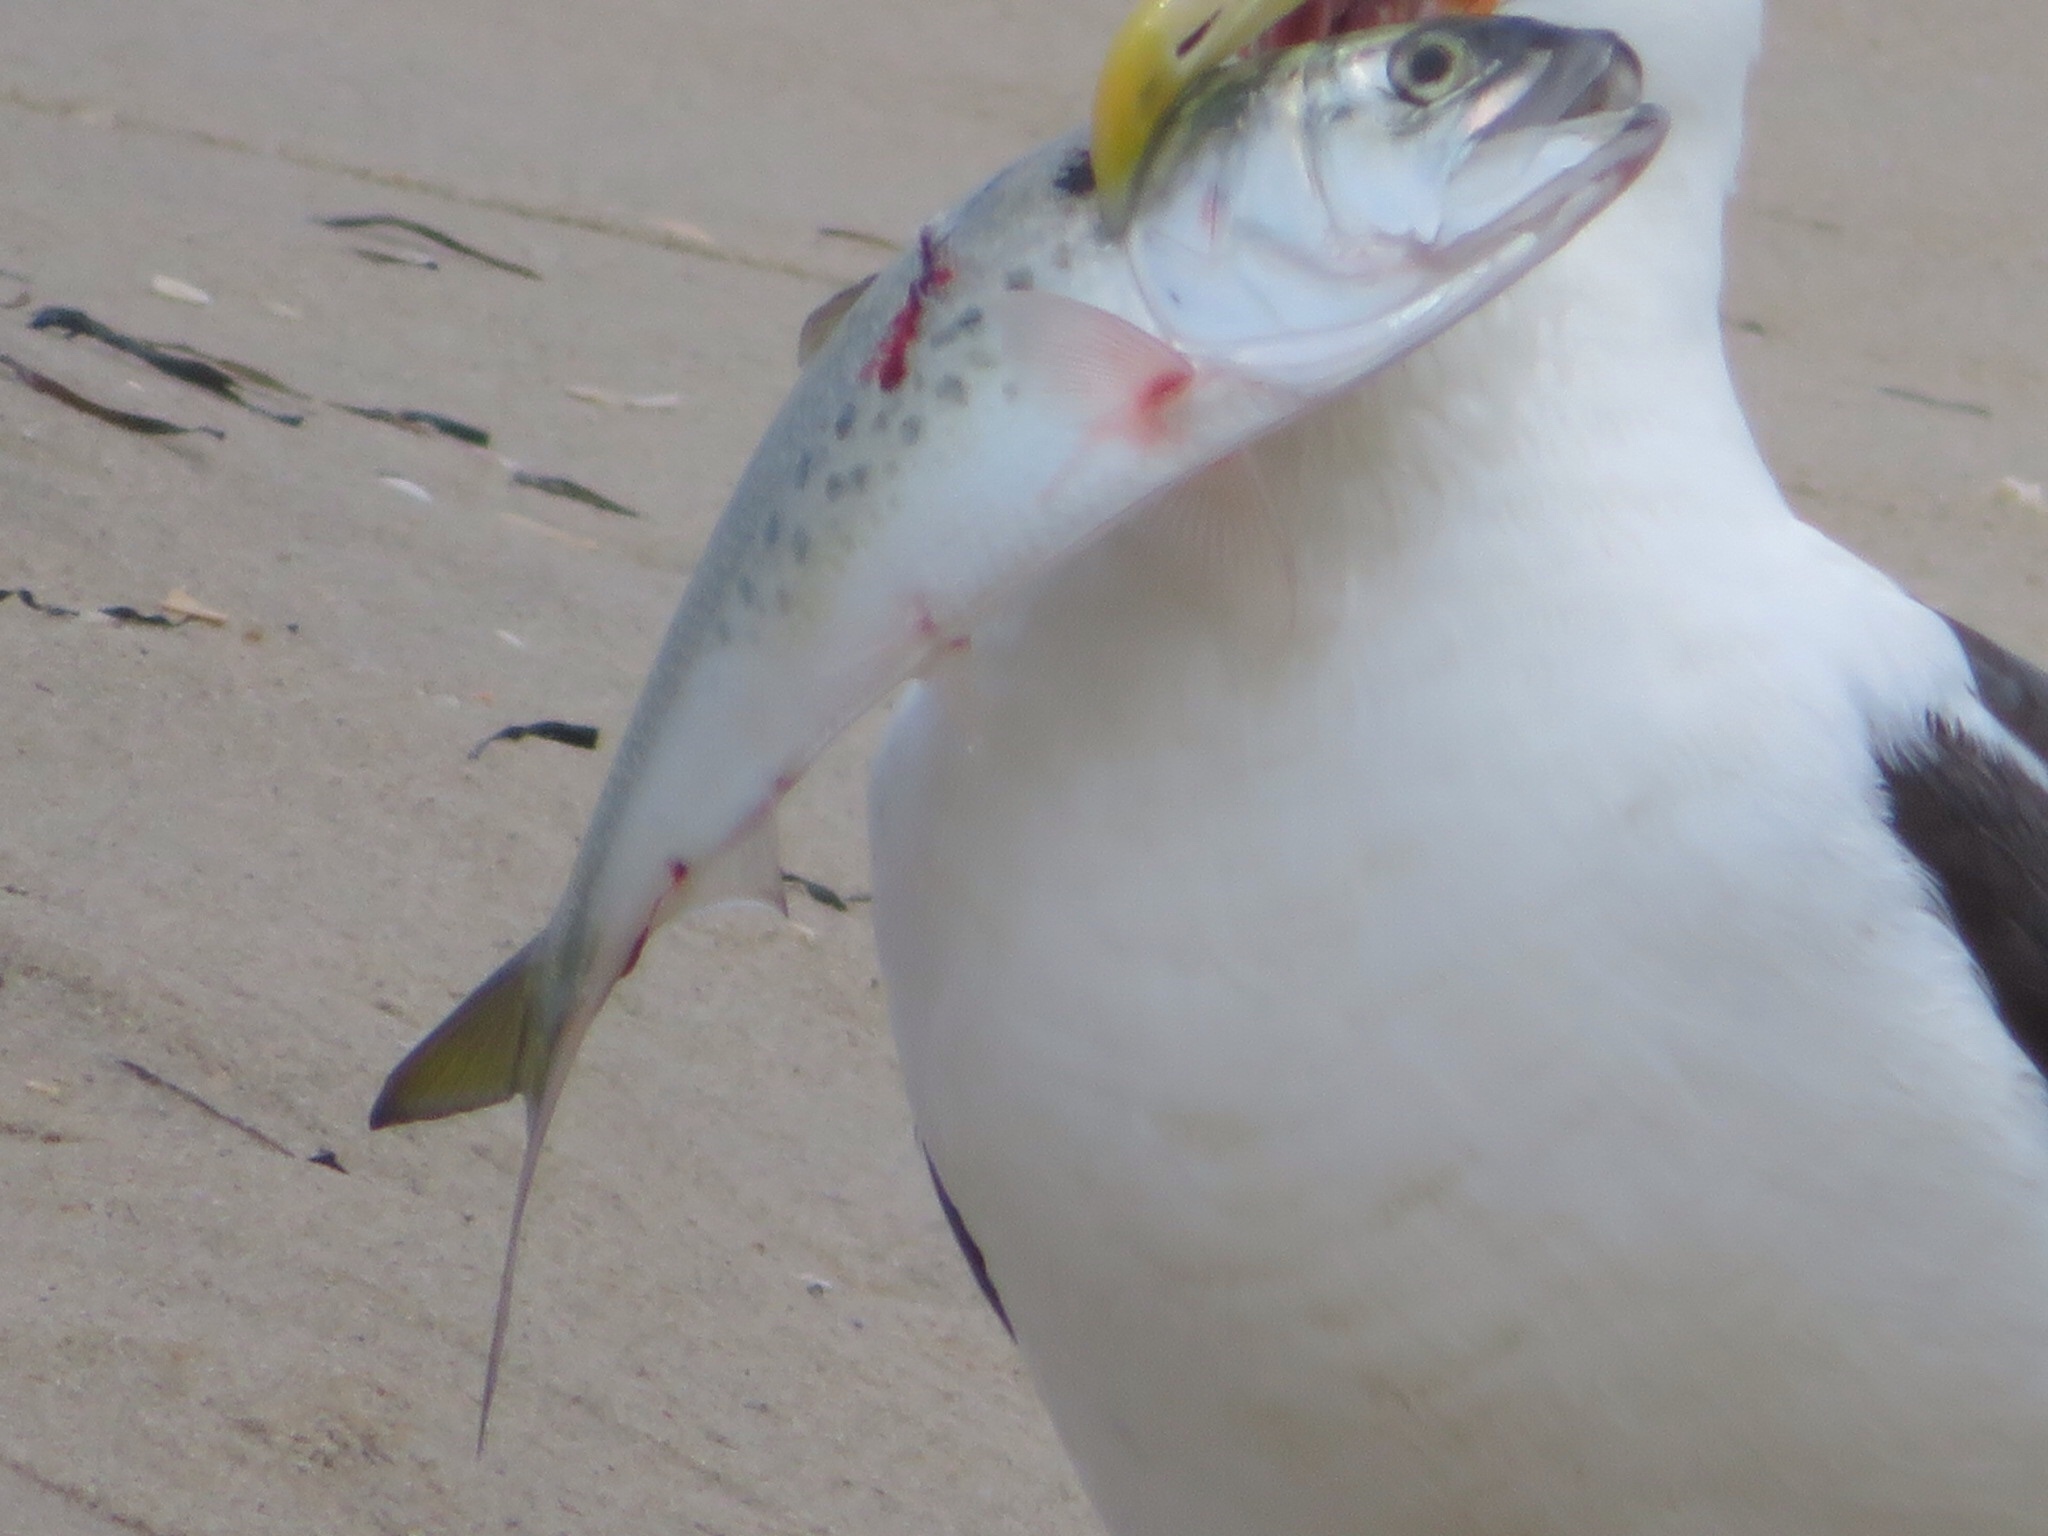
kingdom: Animalia
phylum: Chordata
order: Clupeiformes
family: Clupeidae
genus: Brevoortia
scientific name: Brevoortia tyrannus
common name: Atlantic menhaden
